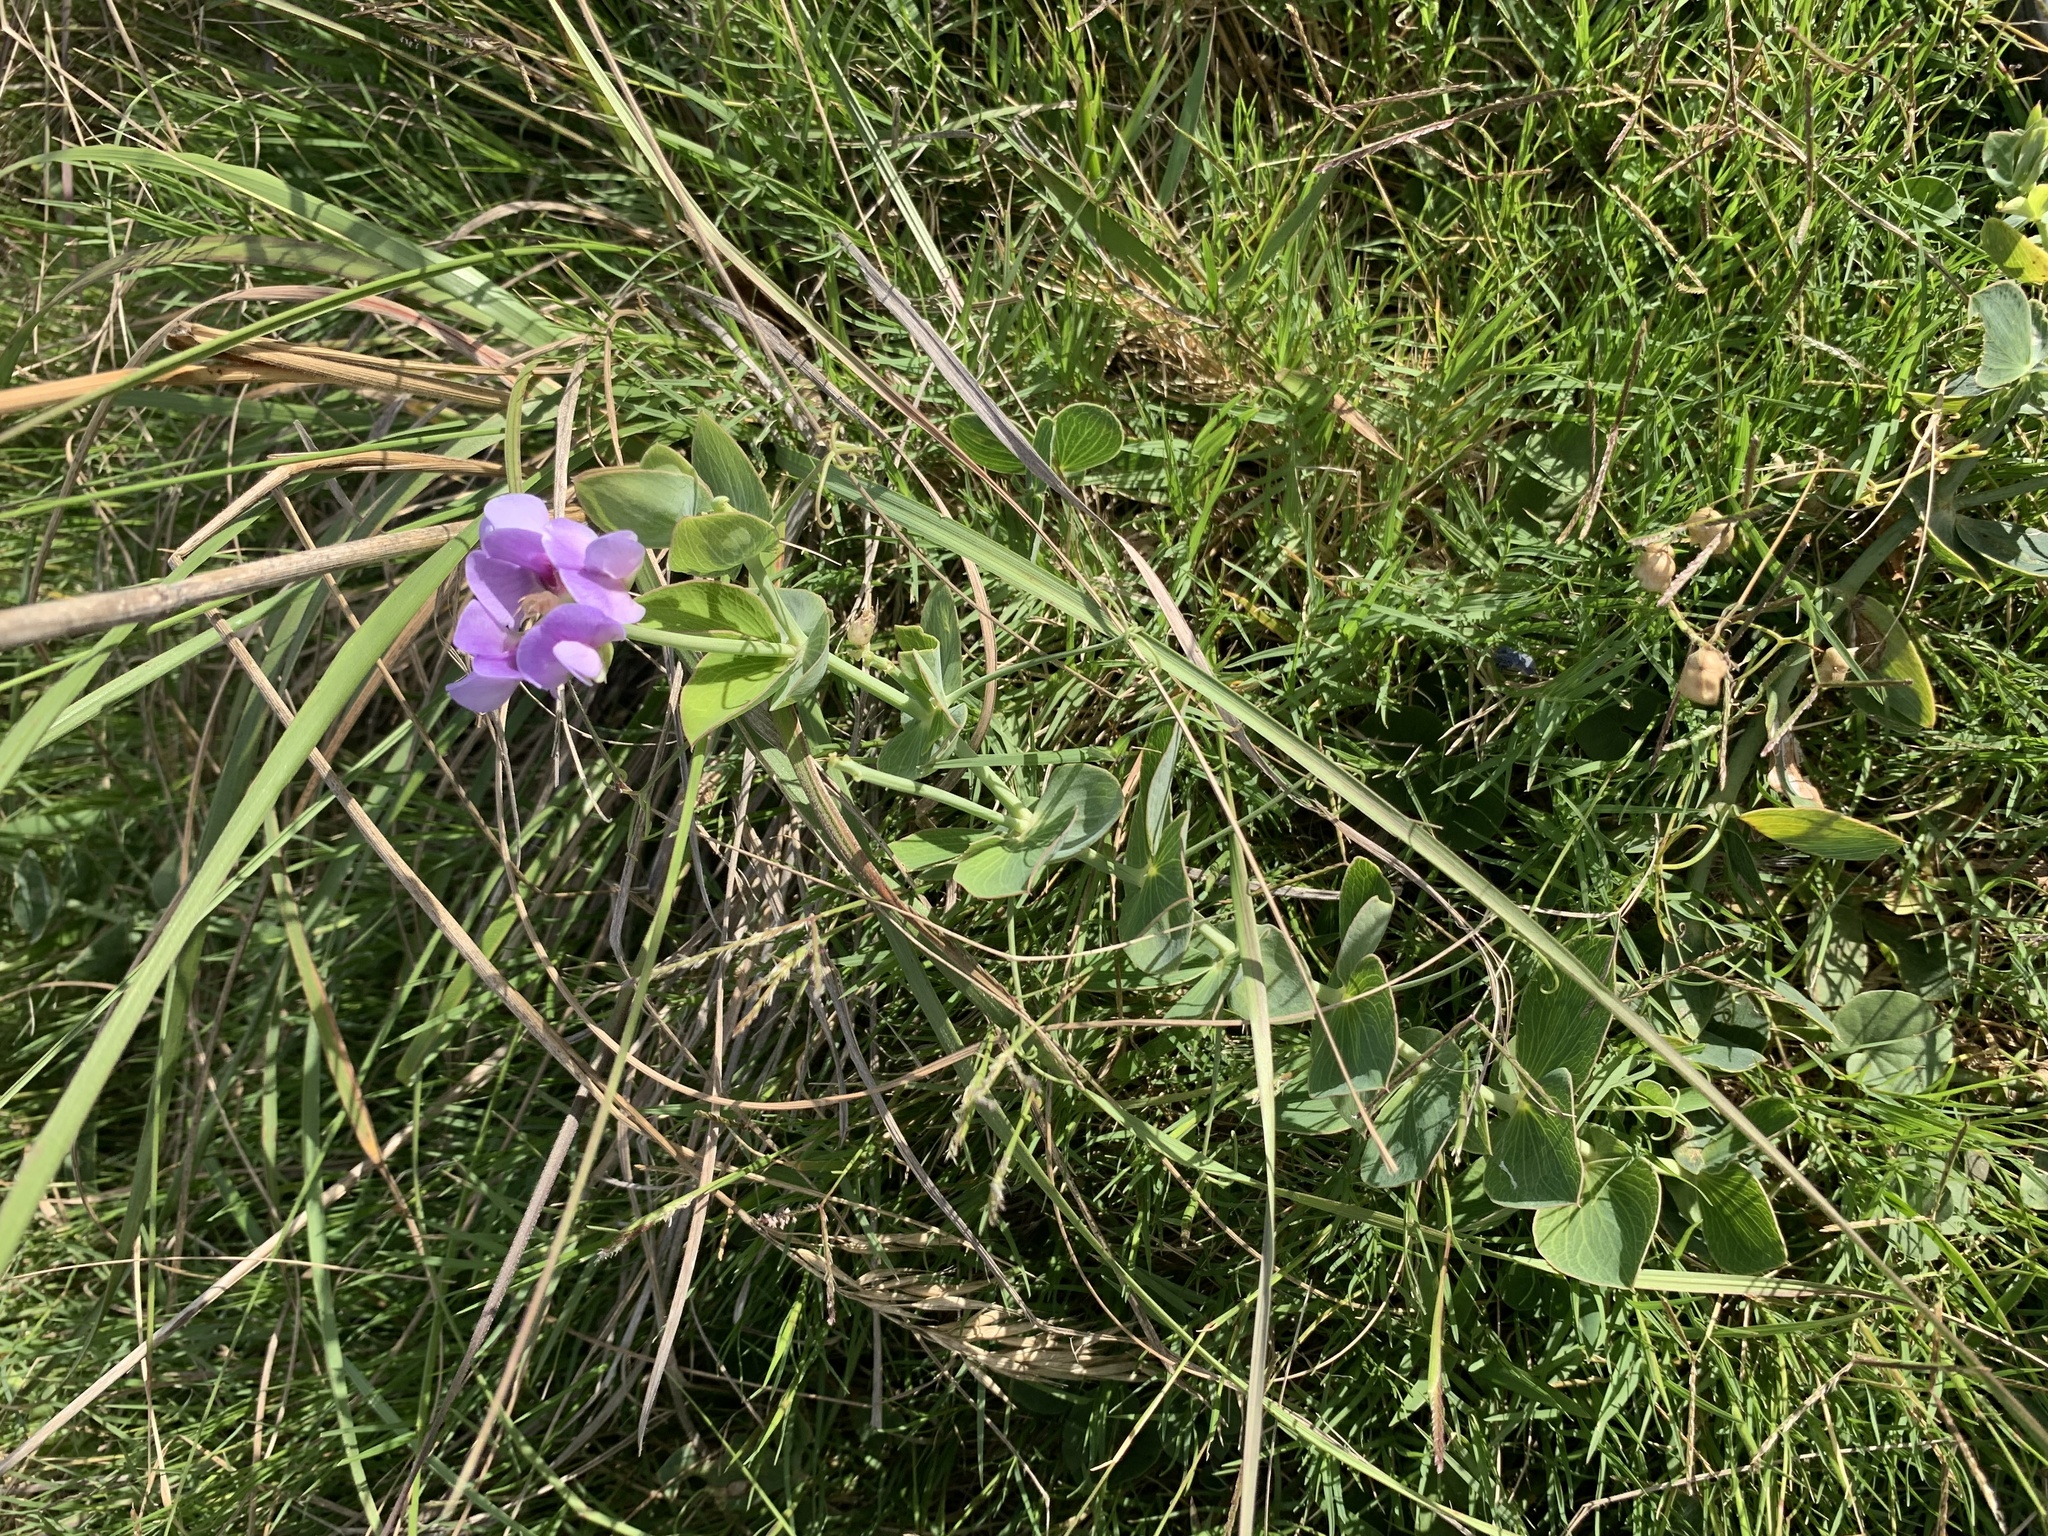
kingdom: Plantae
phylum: Tracheophyta
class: Magnoliopsida
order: Fabales
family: Fabaceae
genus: Lathyrus
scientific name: Lathyrus nervosus
